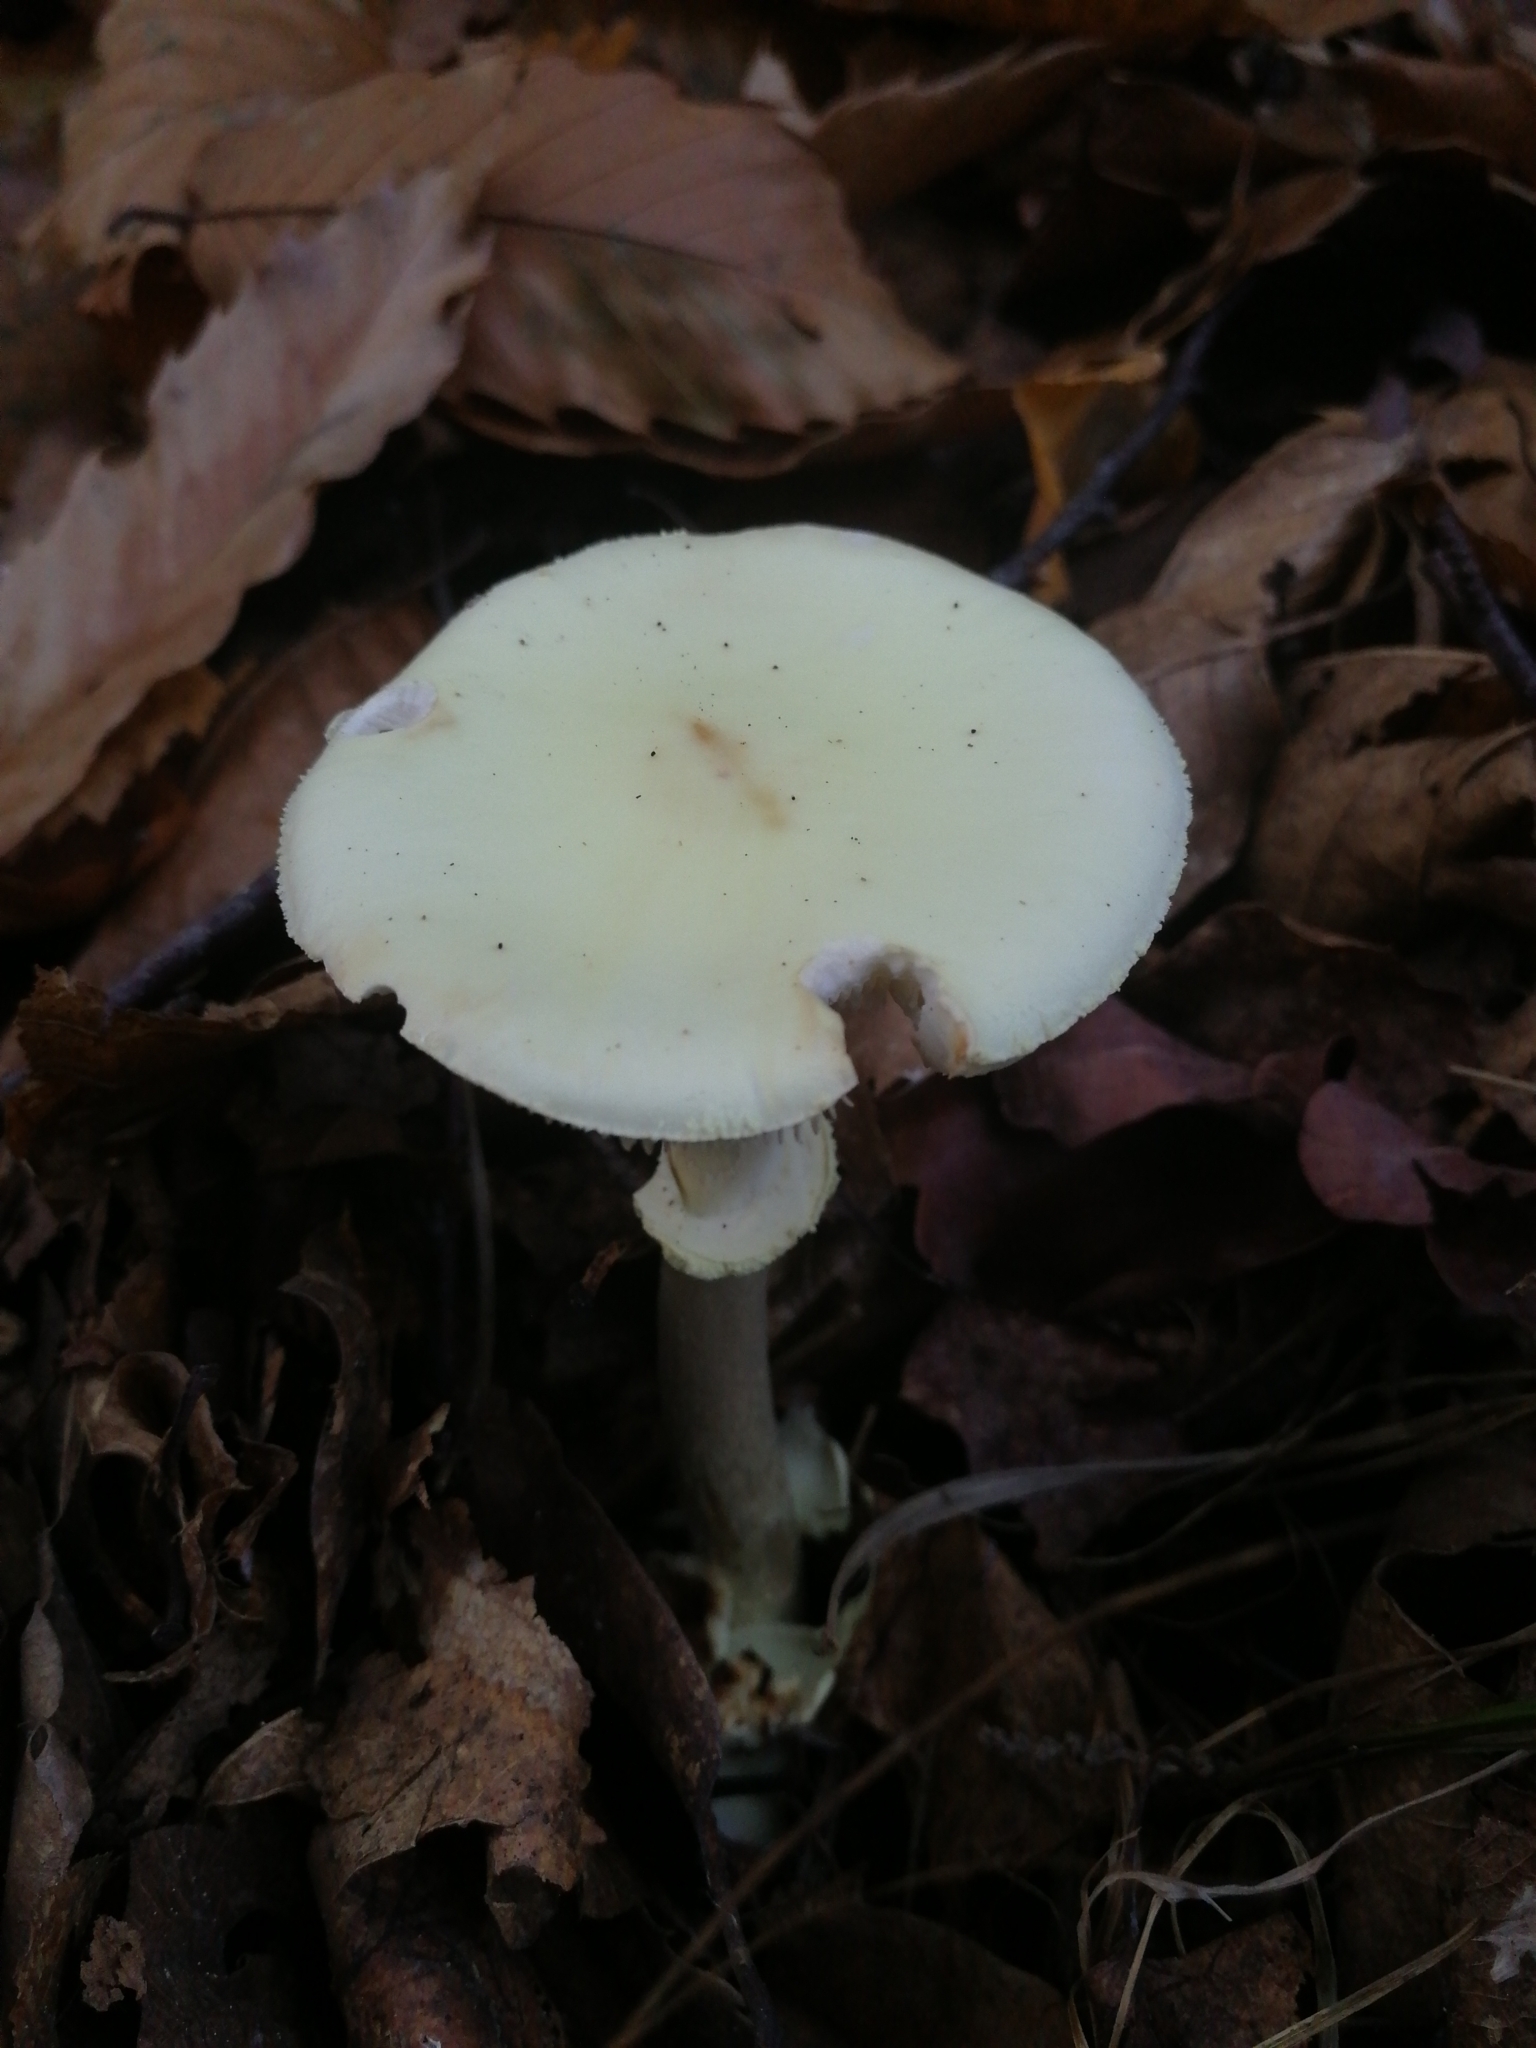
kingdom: Fungi
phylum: Basidiomycota
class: Agaricomycetes
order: Agaricales
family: Amanitaceae
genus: Amanita
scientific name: Amanita citrina
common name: False death-cap
